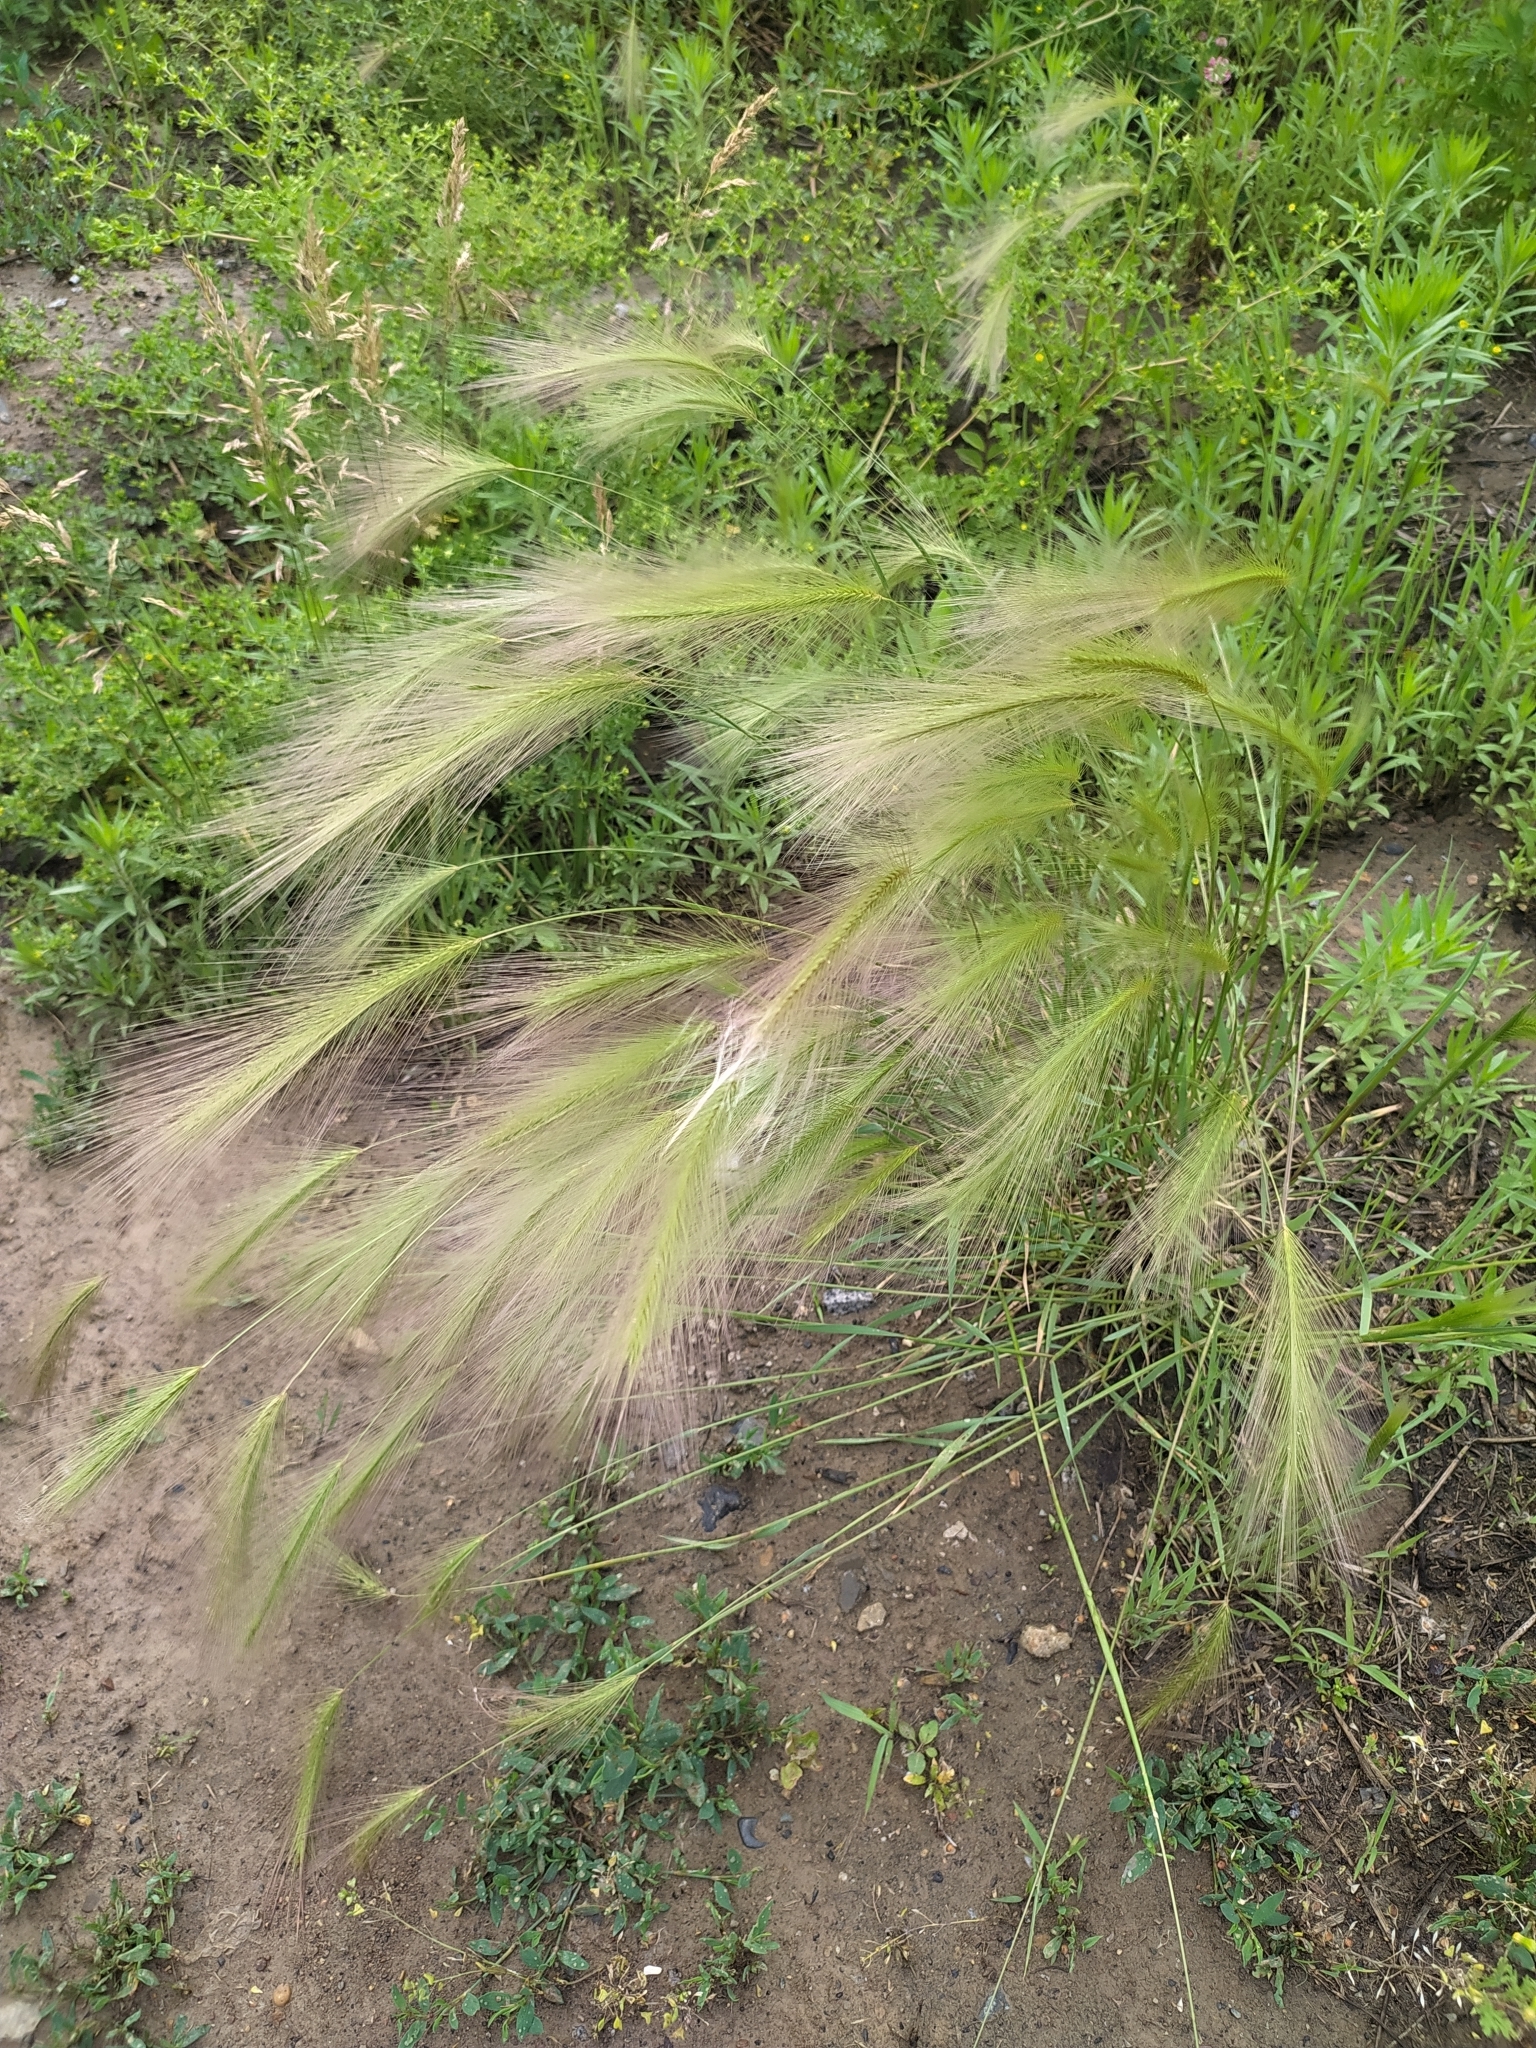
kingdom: Plantae
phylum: Tracheophyta
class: Liliopsida
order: Poales
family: Poaceae
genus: Hordeum
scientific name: Hordeum jubatum
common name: Foxtail barley
